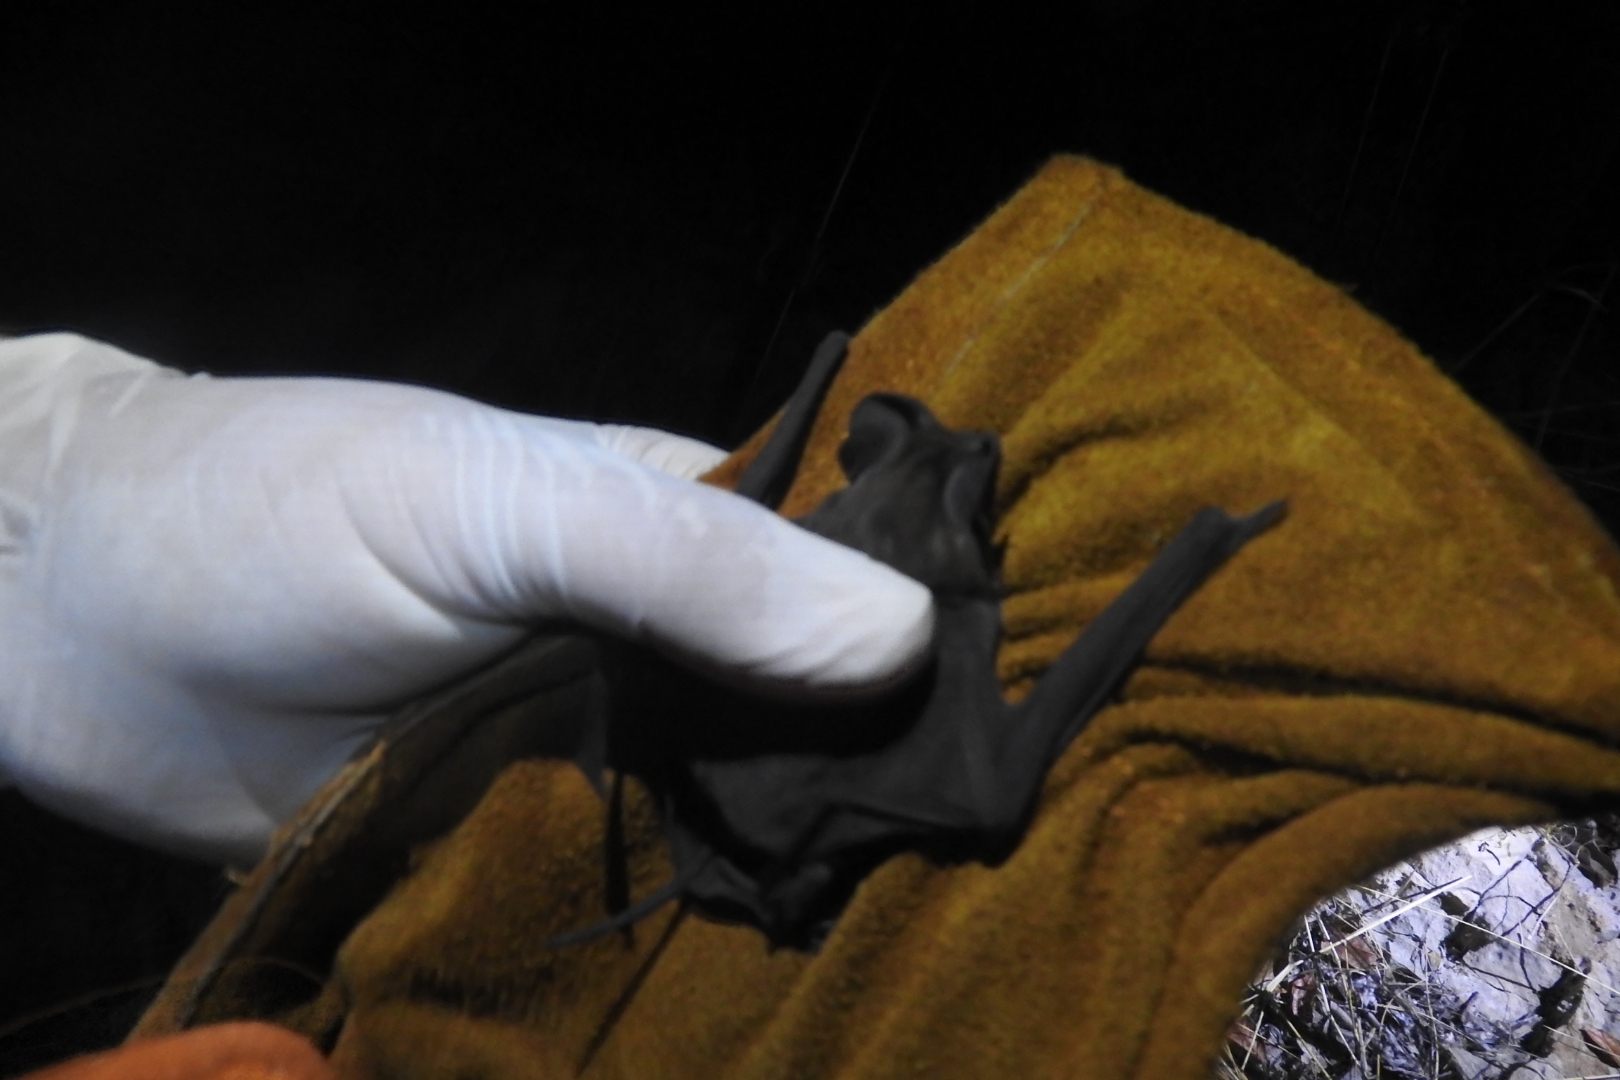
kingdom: Animalia
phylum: Chordata
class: Mammalia
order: Chiroptera
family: Molossidae
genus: Nyctinomops
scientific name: Nyctinomops laticaudatus
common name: Broad-eared free-tailed bat
